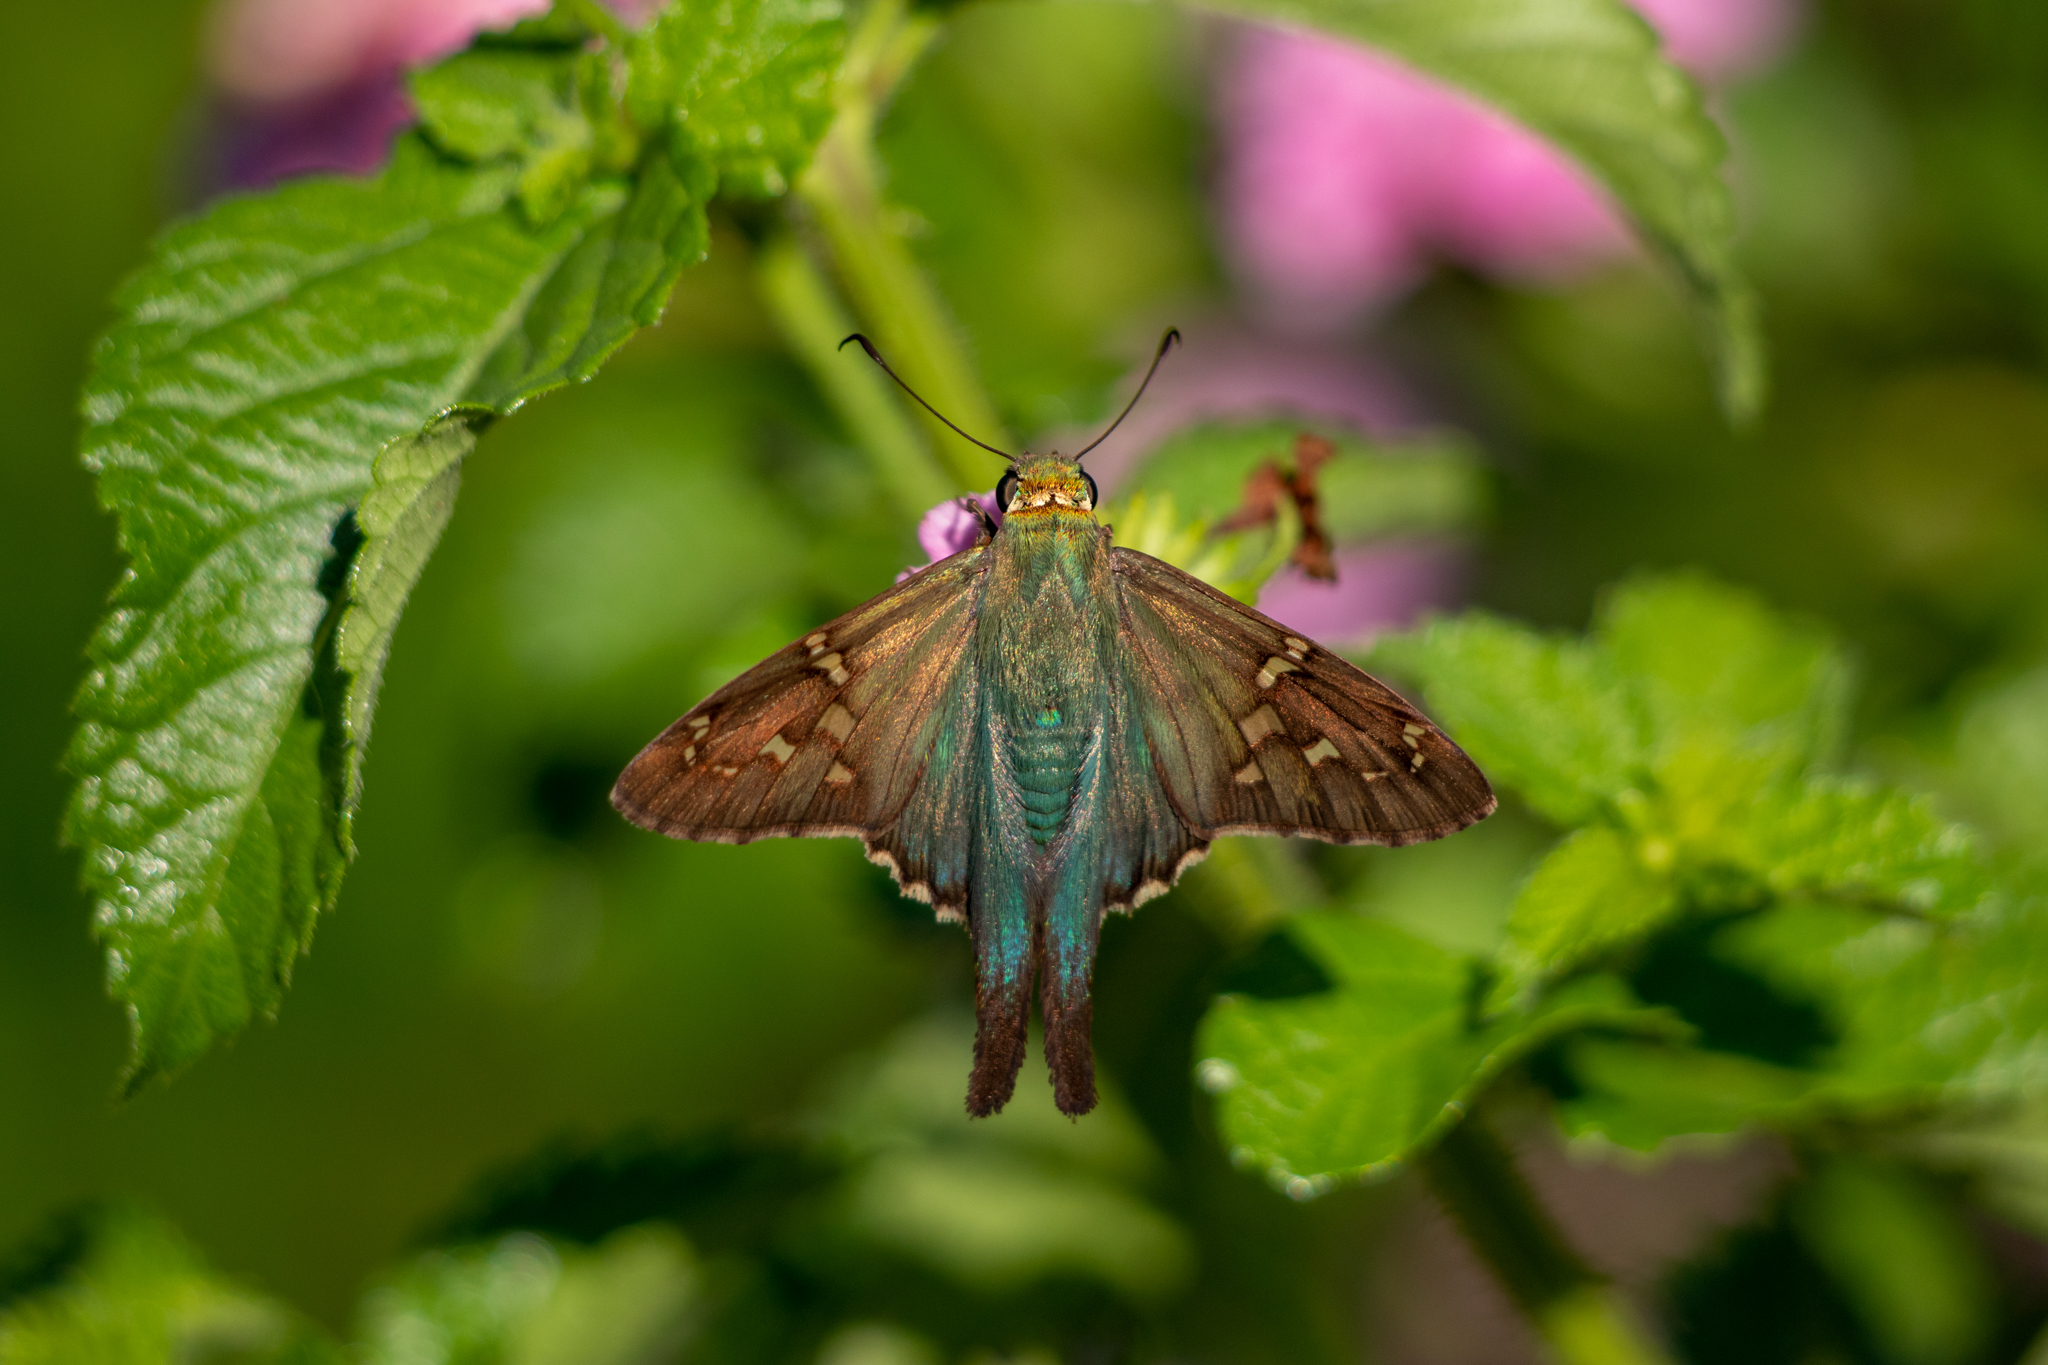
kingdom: Animalia
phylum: Arthropoda
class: Insecta
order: Lepidoptera
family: Hesperiidae
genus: Urbanus
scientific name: Urbanus proteus
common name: Long-tailed skipper
